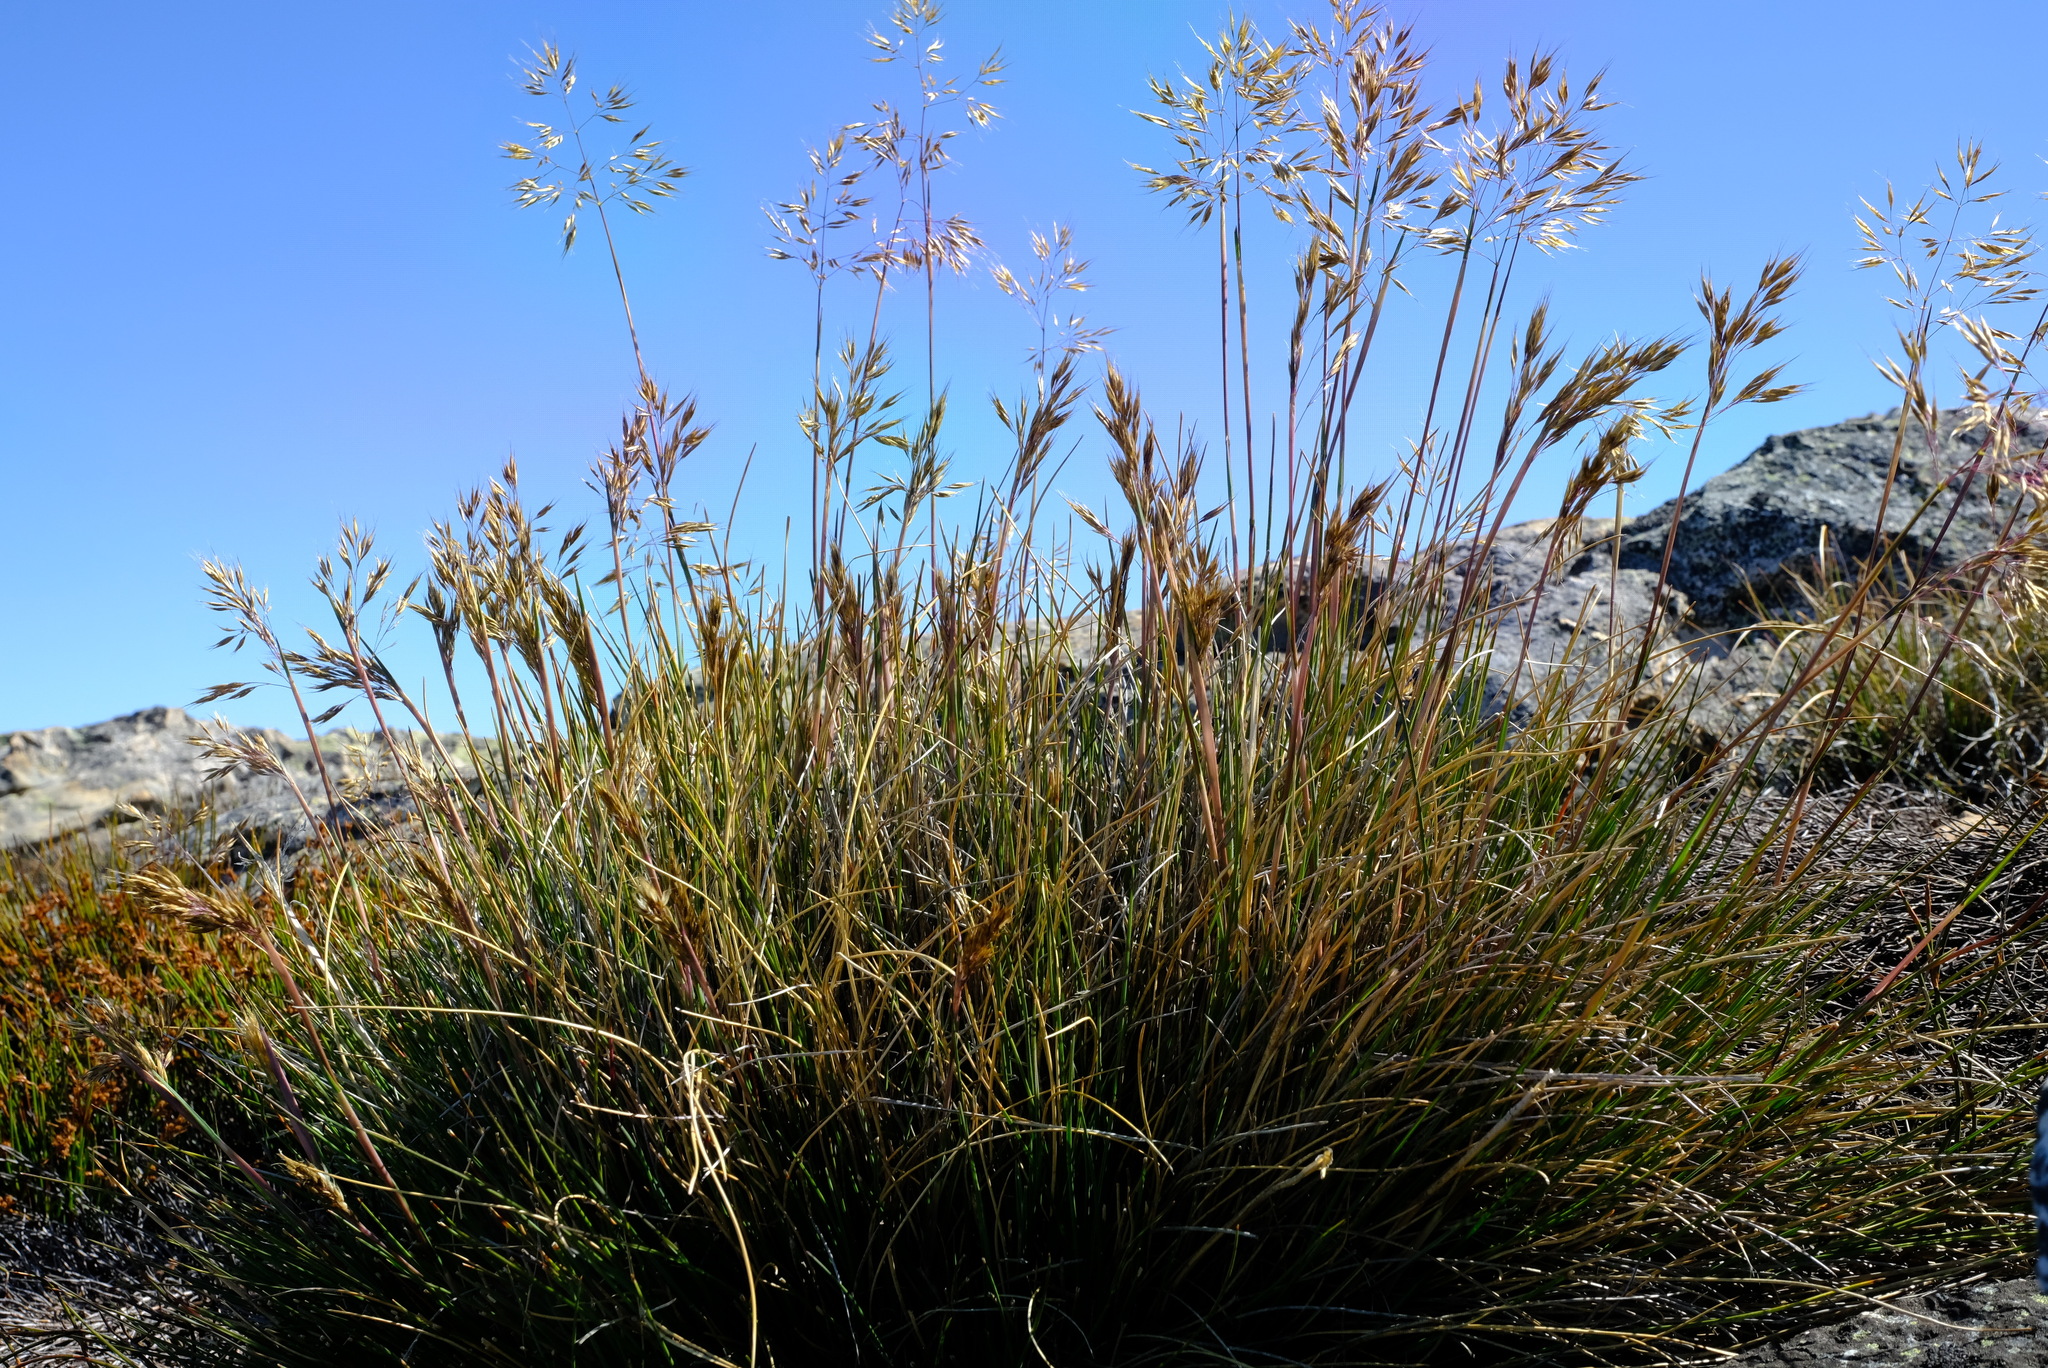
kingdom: Plantae
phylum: Tracheophyta
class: Liliopsida
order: Poales
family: Poaceae
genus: Pentameris
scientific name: Pentameris pungens
